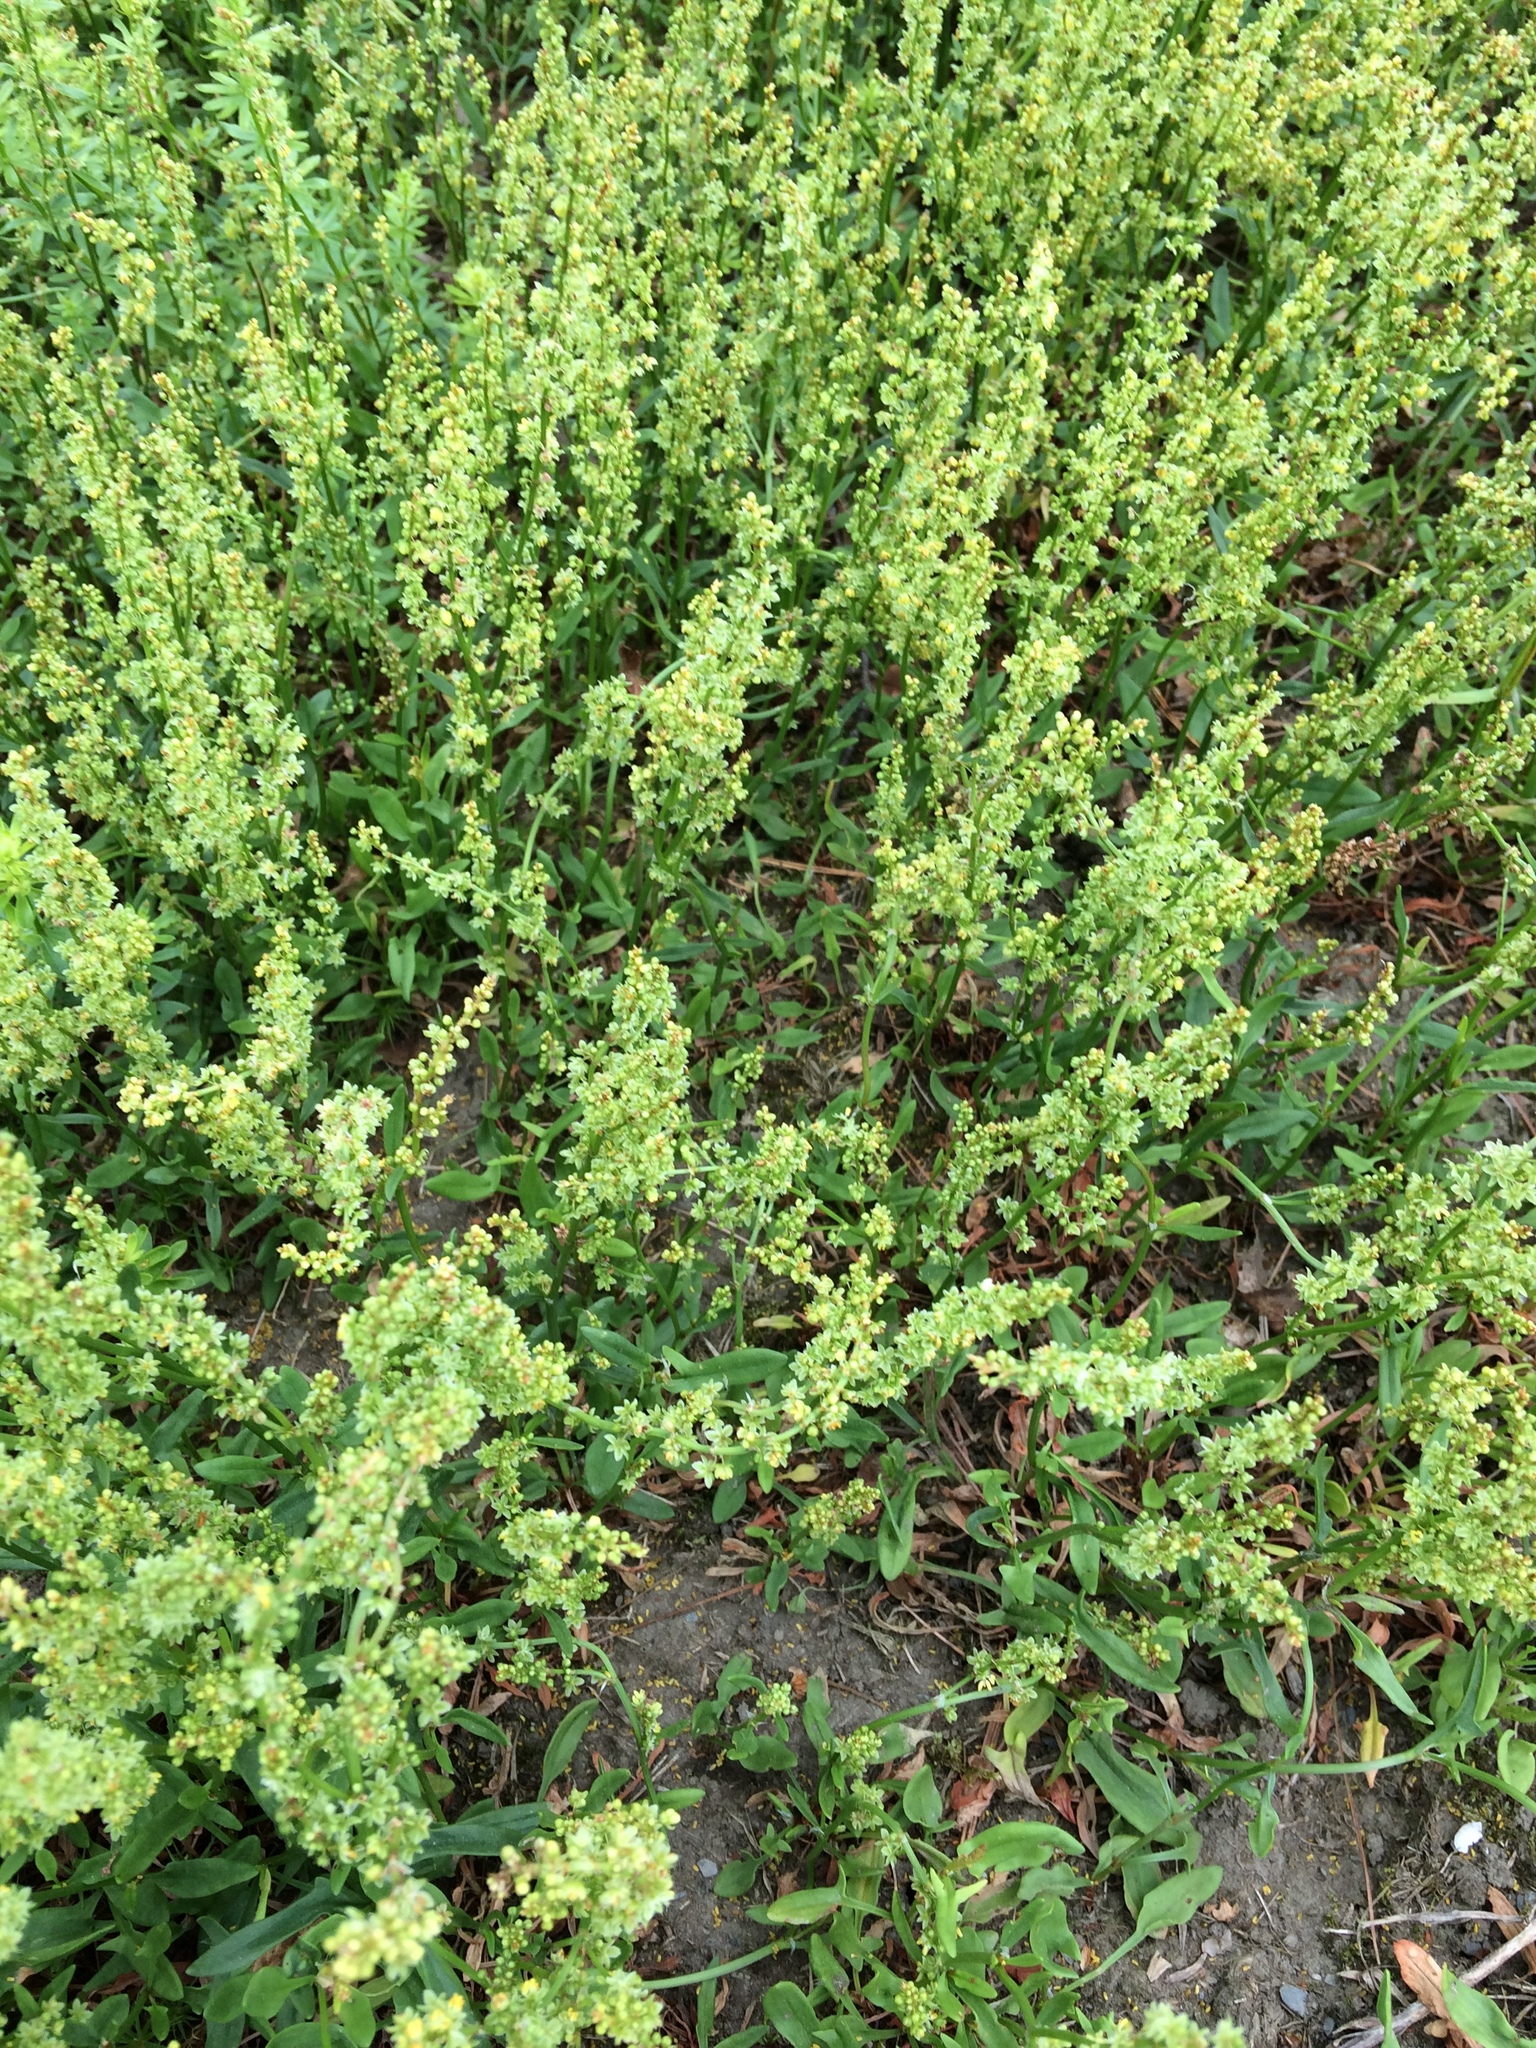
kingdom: Plantae
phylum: Tracheophyta
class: Magnoliopsida
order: Caryophyllales
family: Polygonaceae
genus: Rumex
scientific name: Rumex acetosella
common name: Common sheep sorrel
